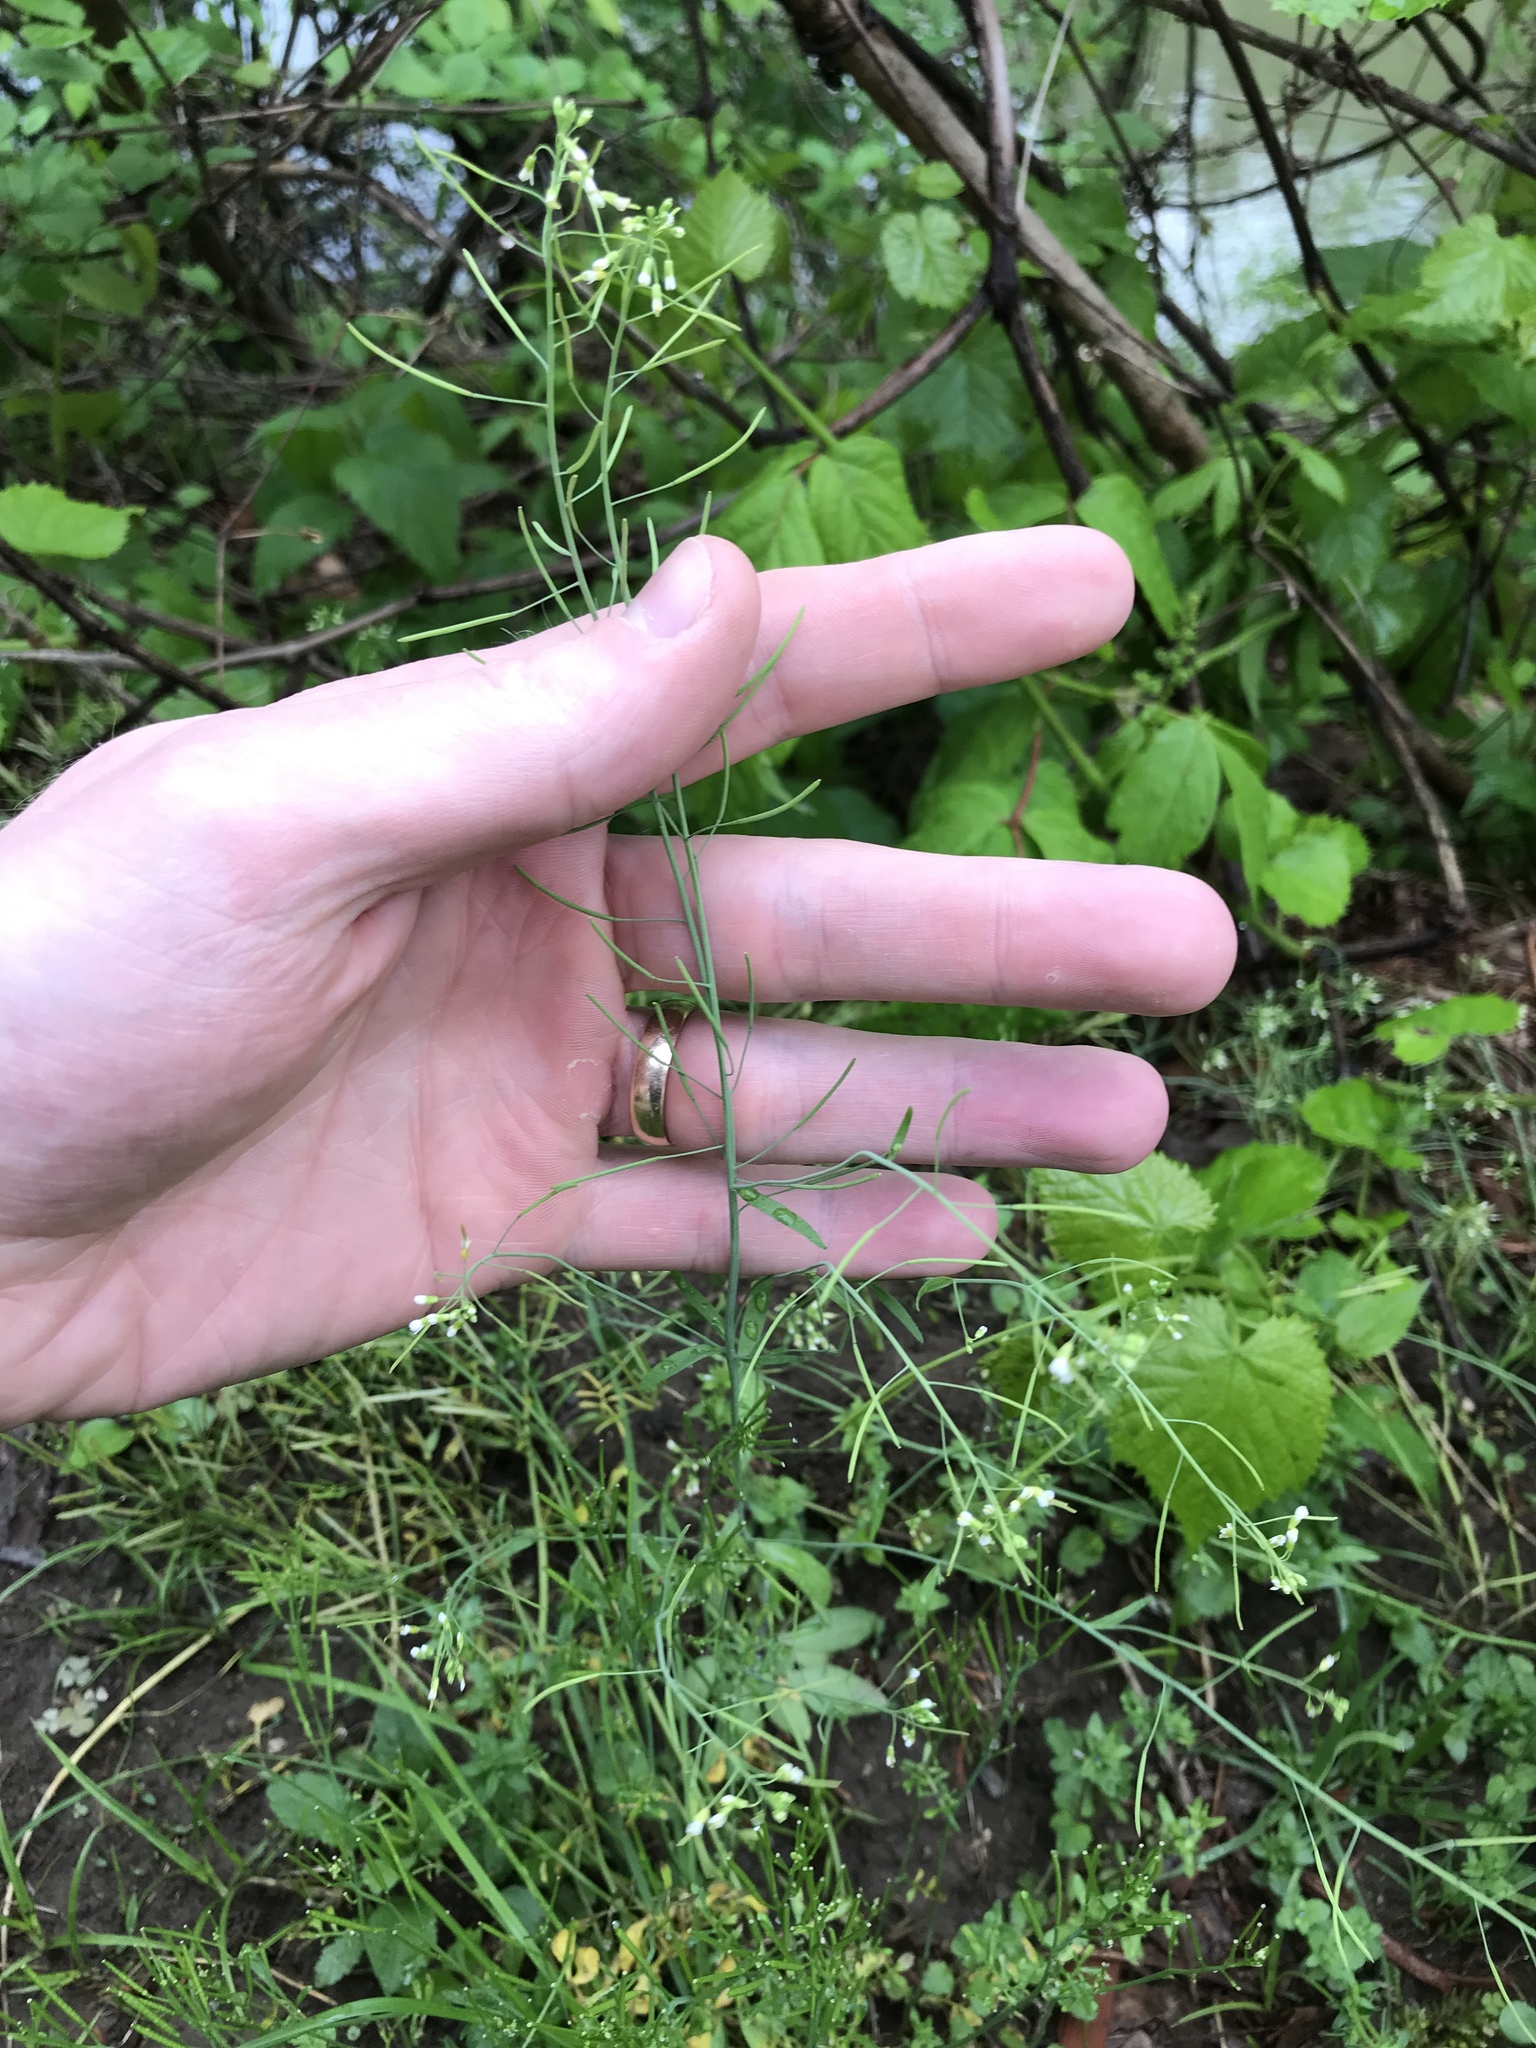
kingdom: Plantae
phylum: Tracheophyta
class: Magnoliopsida
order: Brassicales
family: Brassicaceae
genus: Arabidopsis
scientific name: Arabidopsis thaliana
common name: Thale cress
